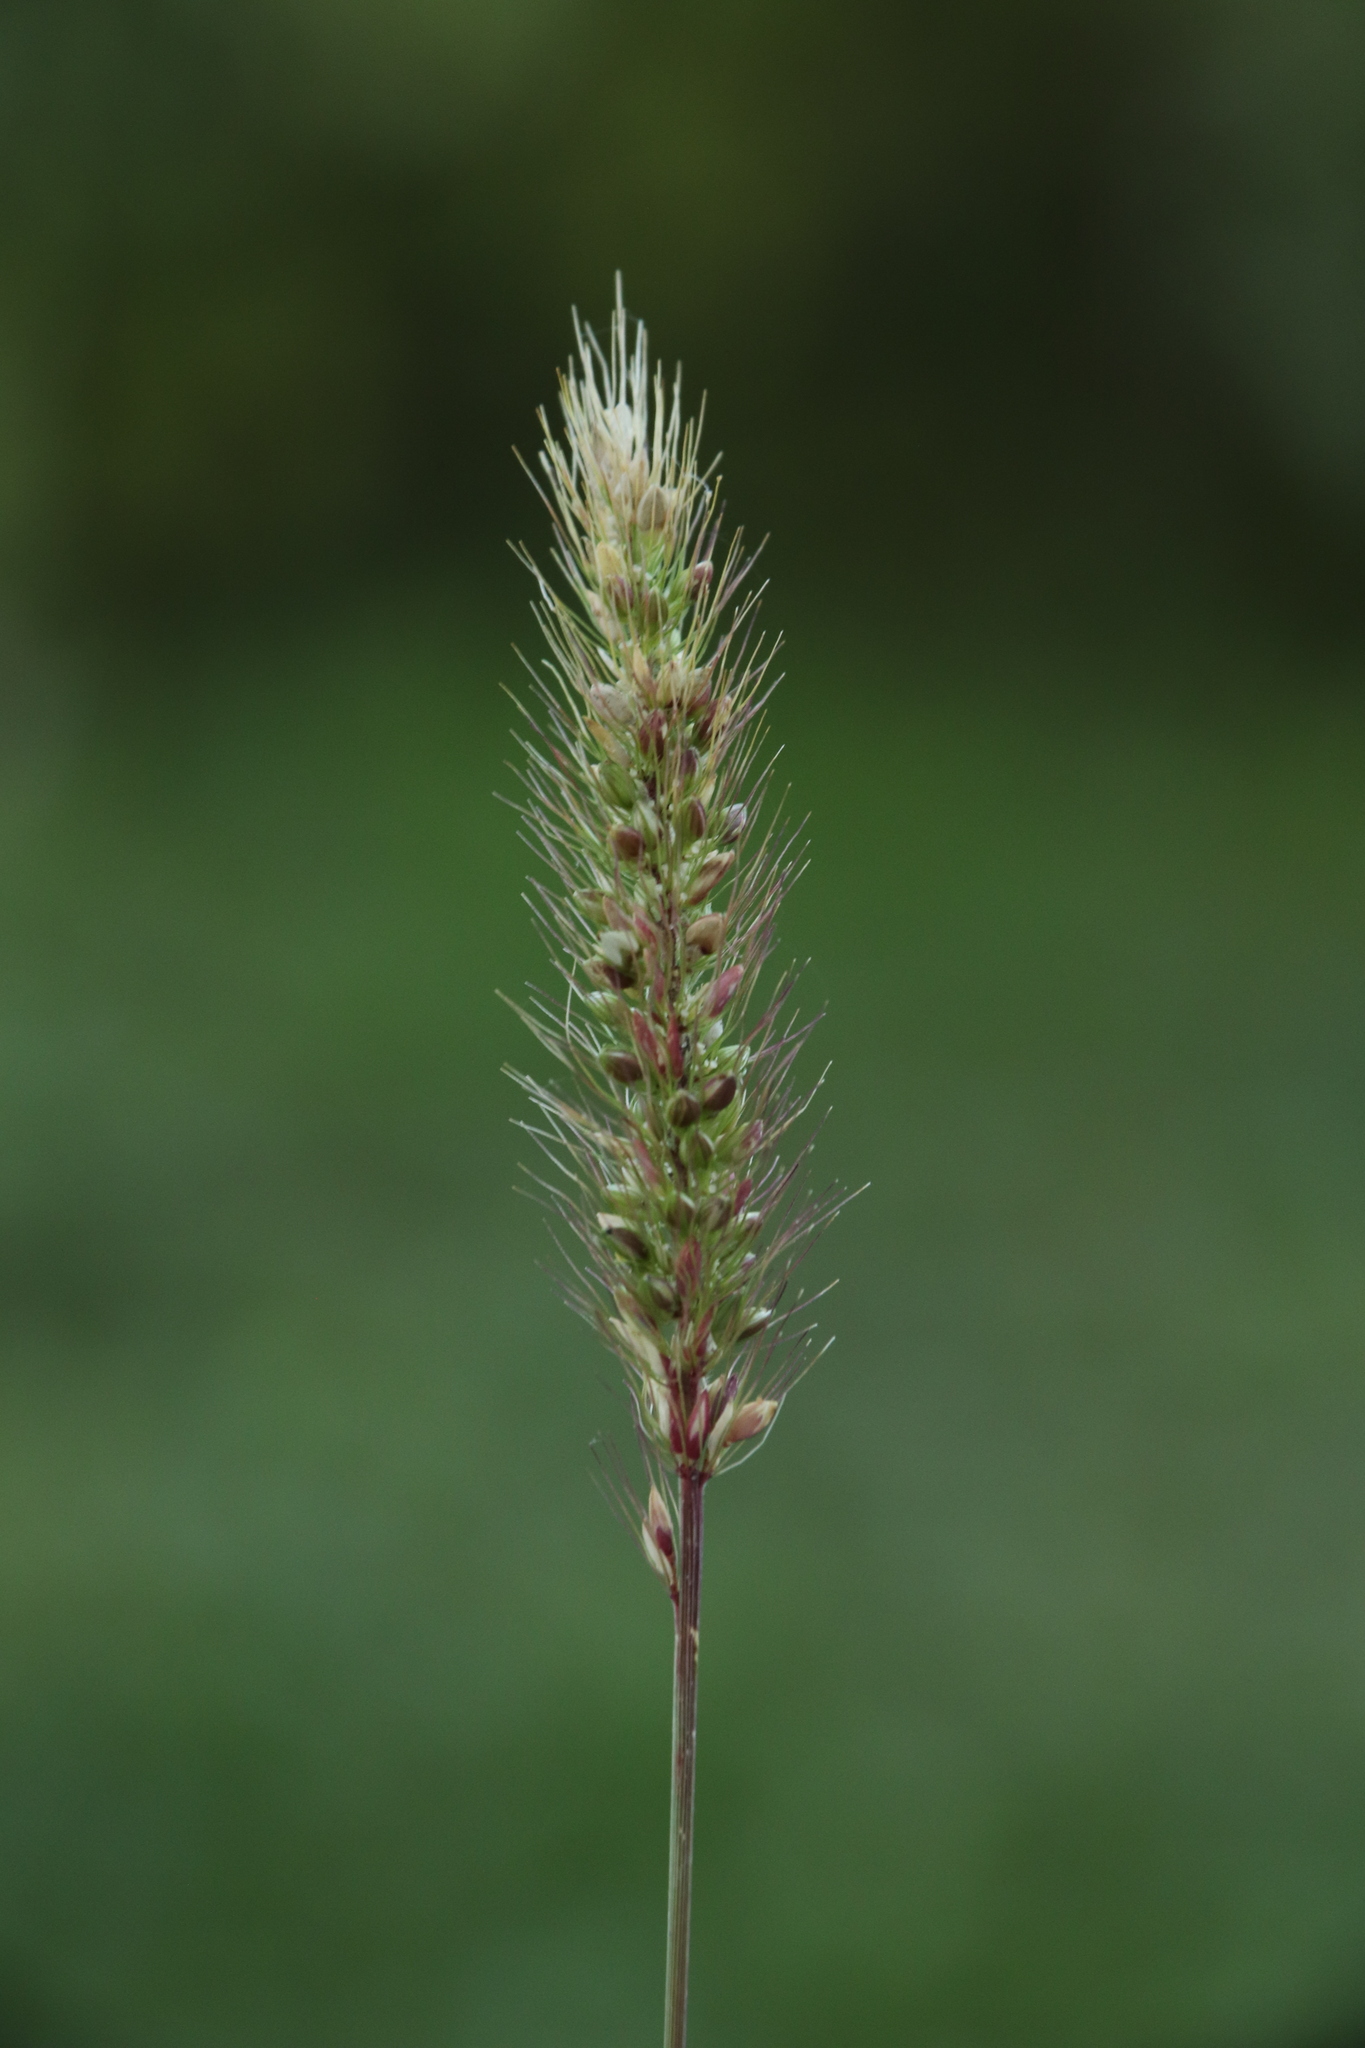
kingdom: Plantae
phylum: Tracheophyta
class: Liliopsida
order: Poales
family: Poaceae
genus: Setaria
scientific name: Setaria viridis
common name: Green bristlegrass
